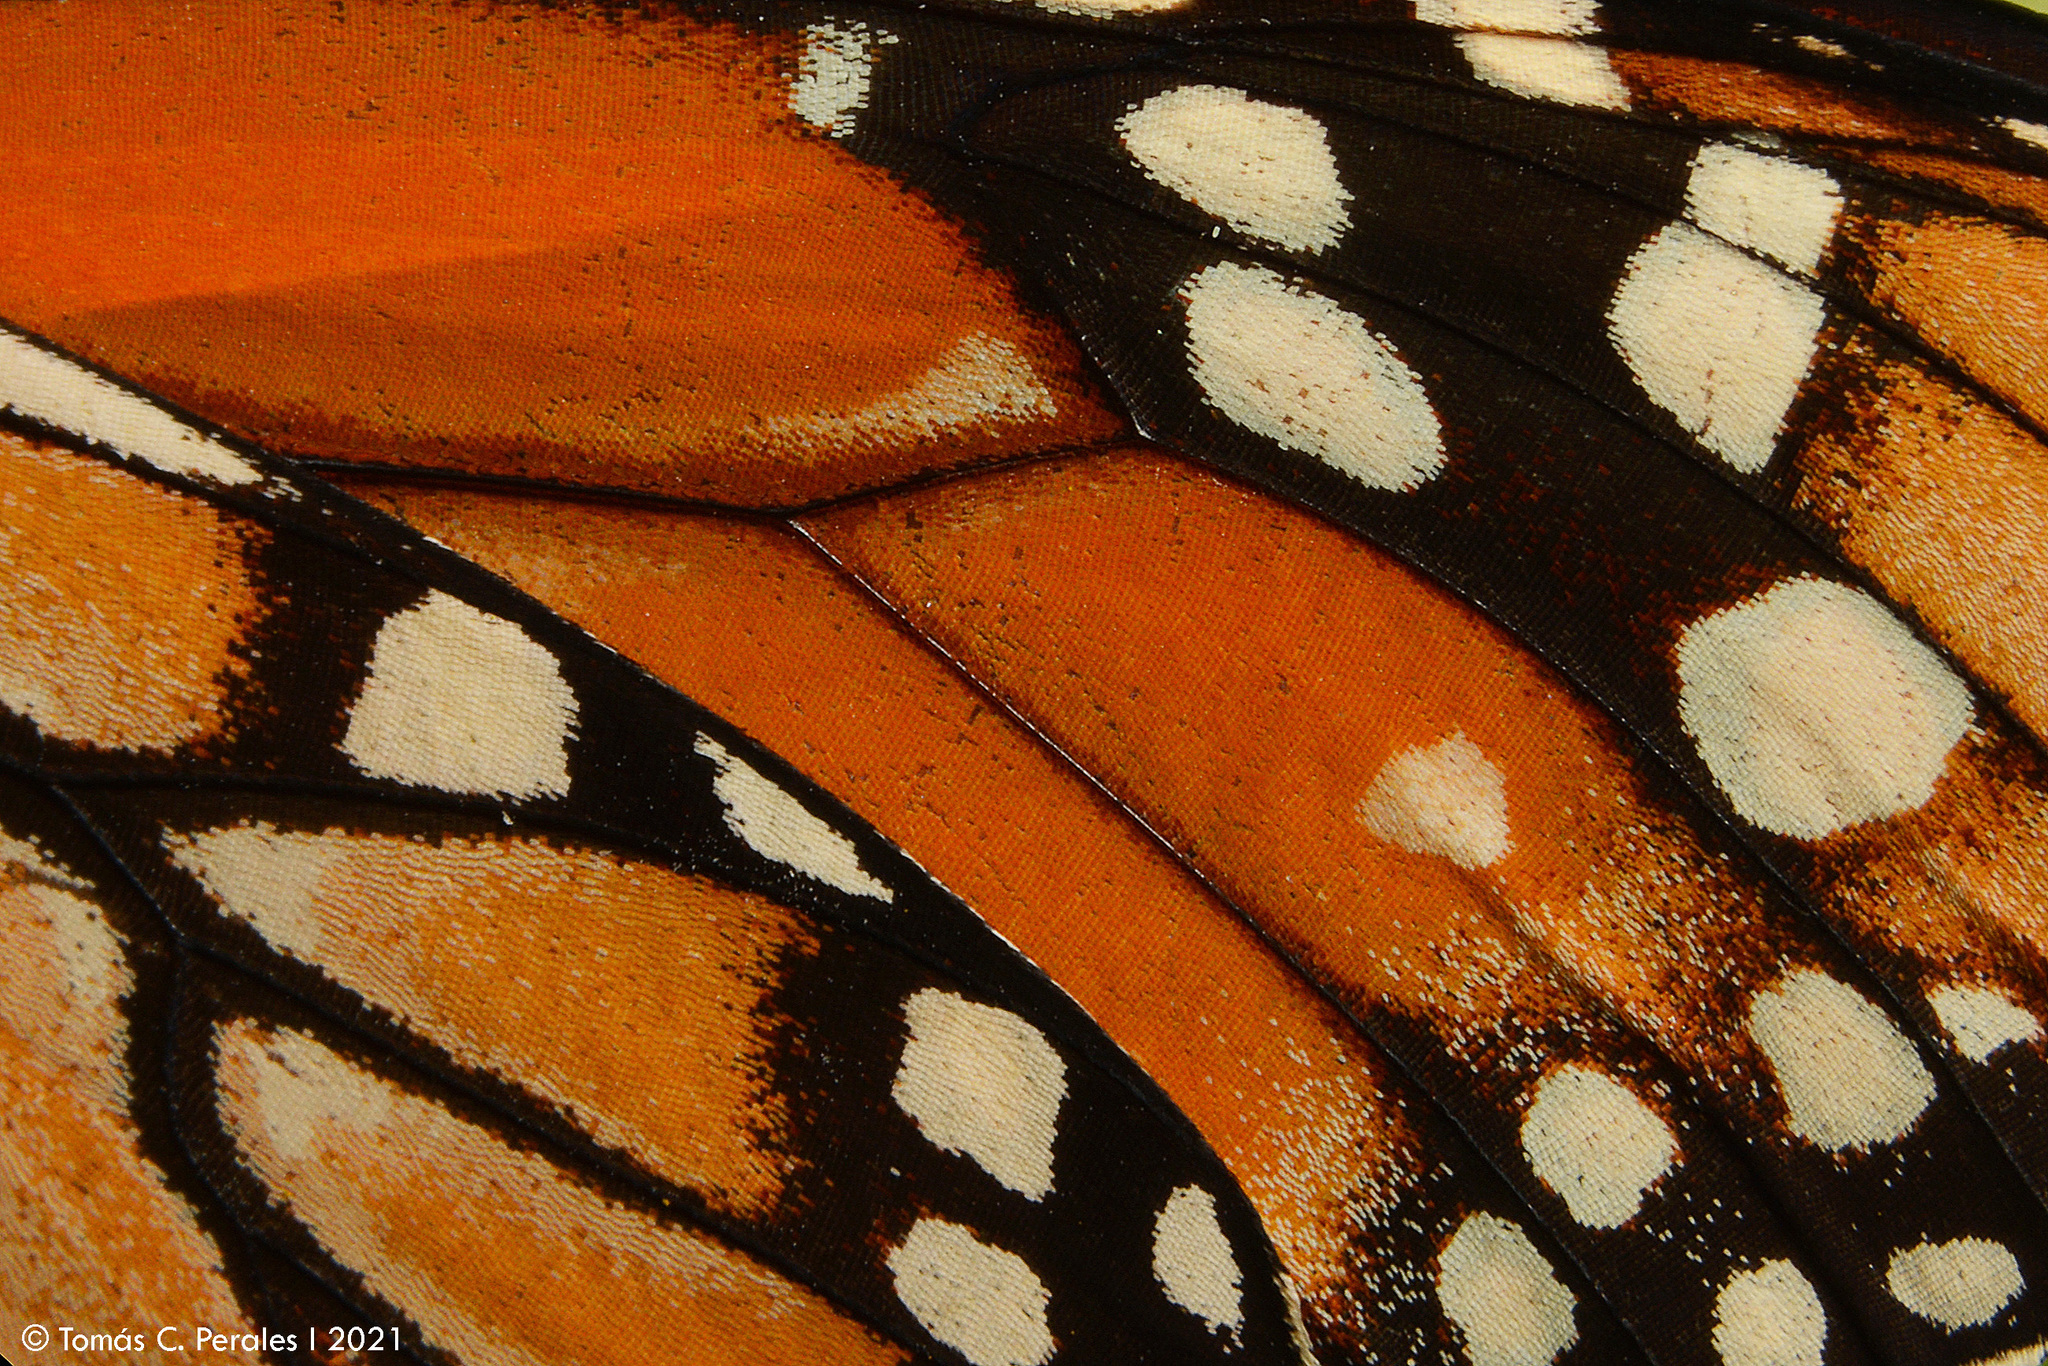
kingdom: Animalia
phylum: Arthropoda
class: Insecta
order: Lepidoptera
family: Nymphalidae
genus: Danaus
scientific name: Danaus erippus
